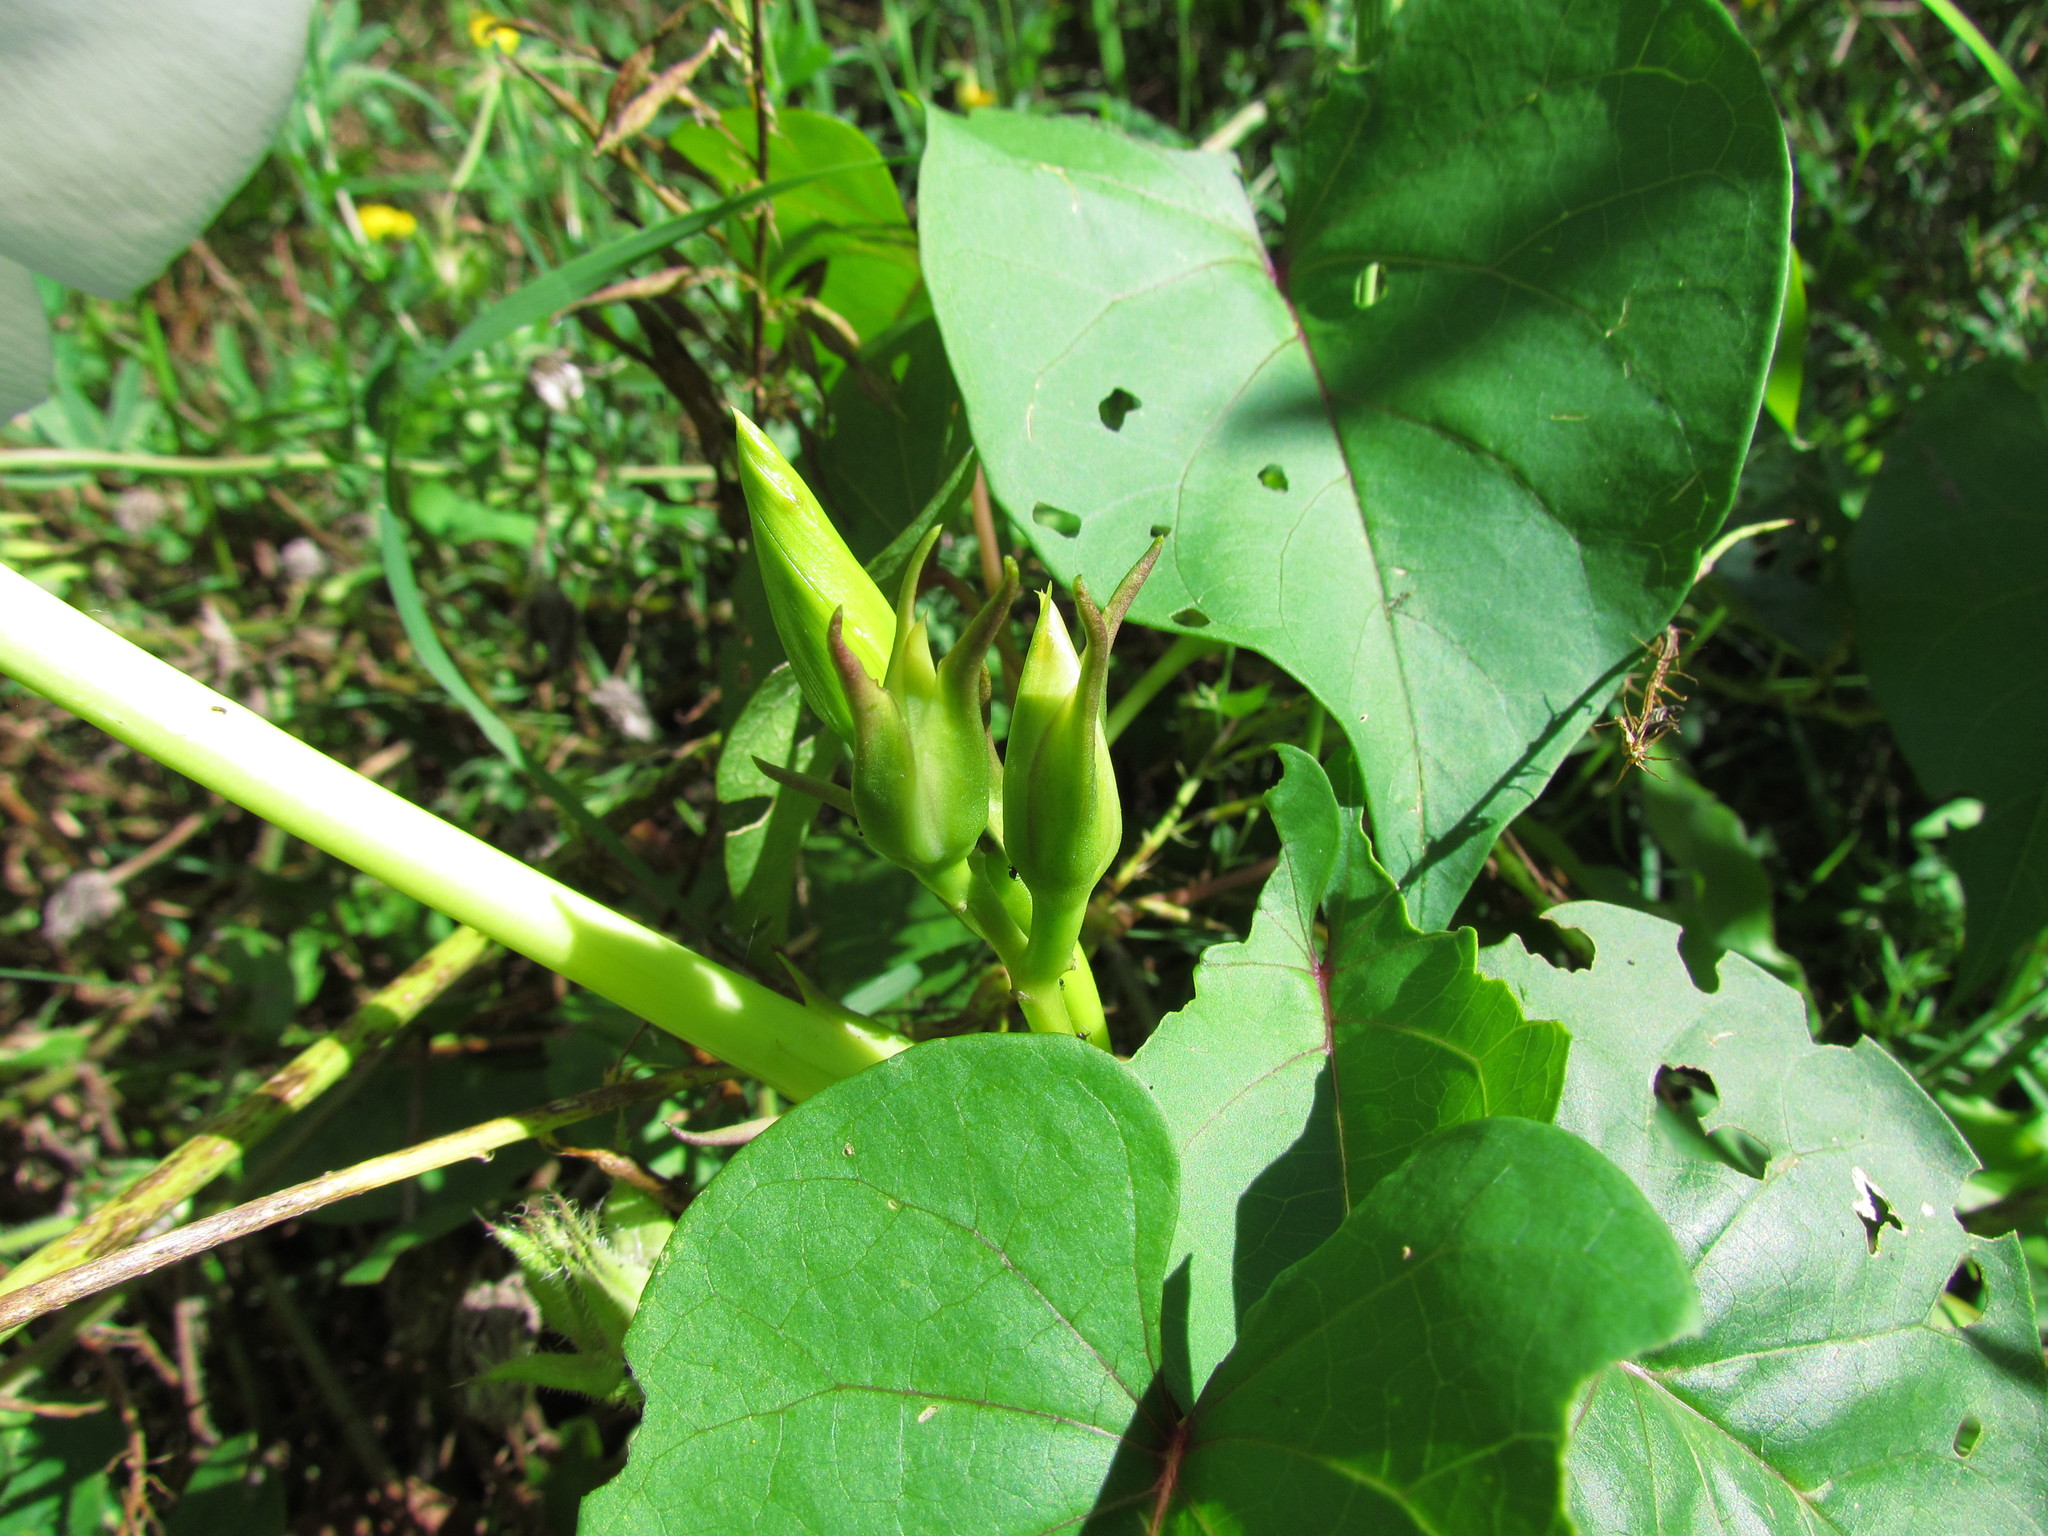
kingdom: Plantae
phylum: Tracheophyta
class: Magnoliopsida
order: Solanales
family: Convolvulaceae
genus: Ipomoea
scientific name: Ipomoea alba
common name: Moonflower
